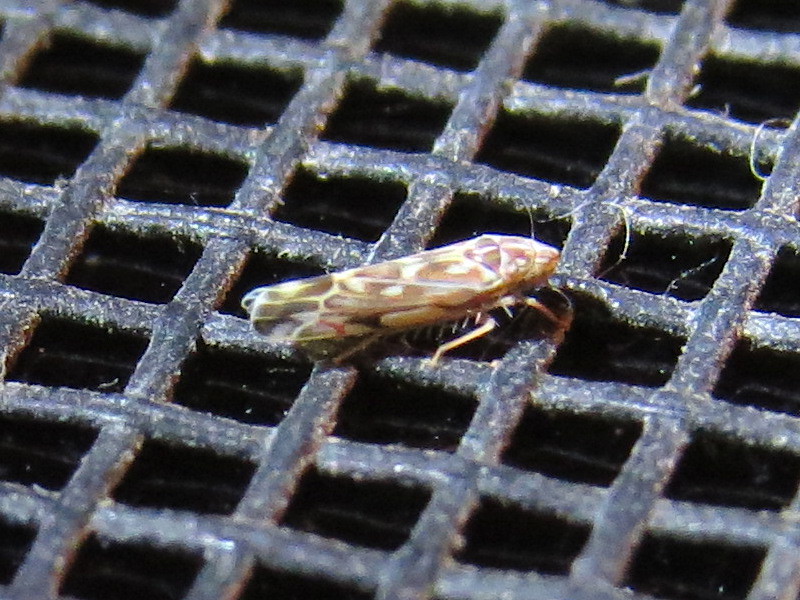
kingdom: Animalia
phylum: Arthropoda
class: Insecta
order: Hemiptera
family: Cicadellidae
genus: Erasmoneura
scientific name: Erasmoneura vulnerata
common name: The wounded leafhopper
